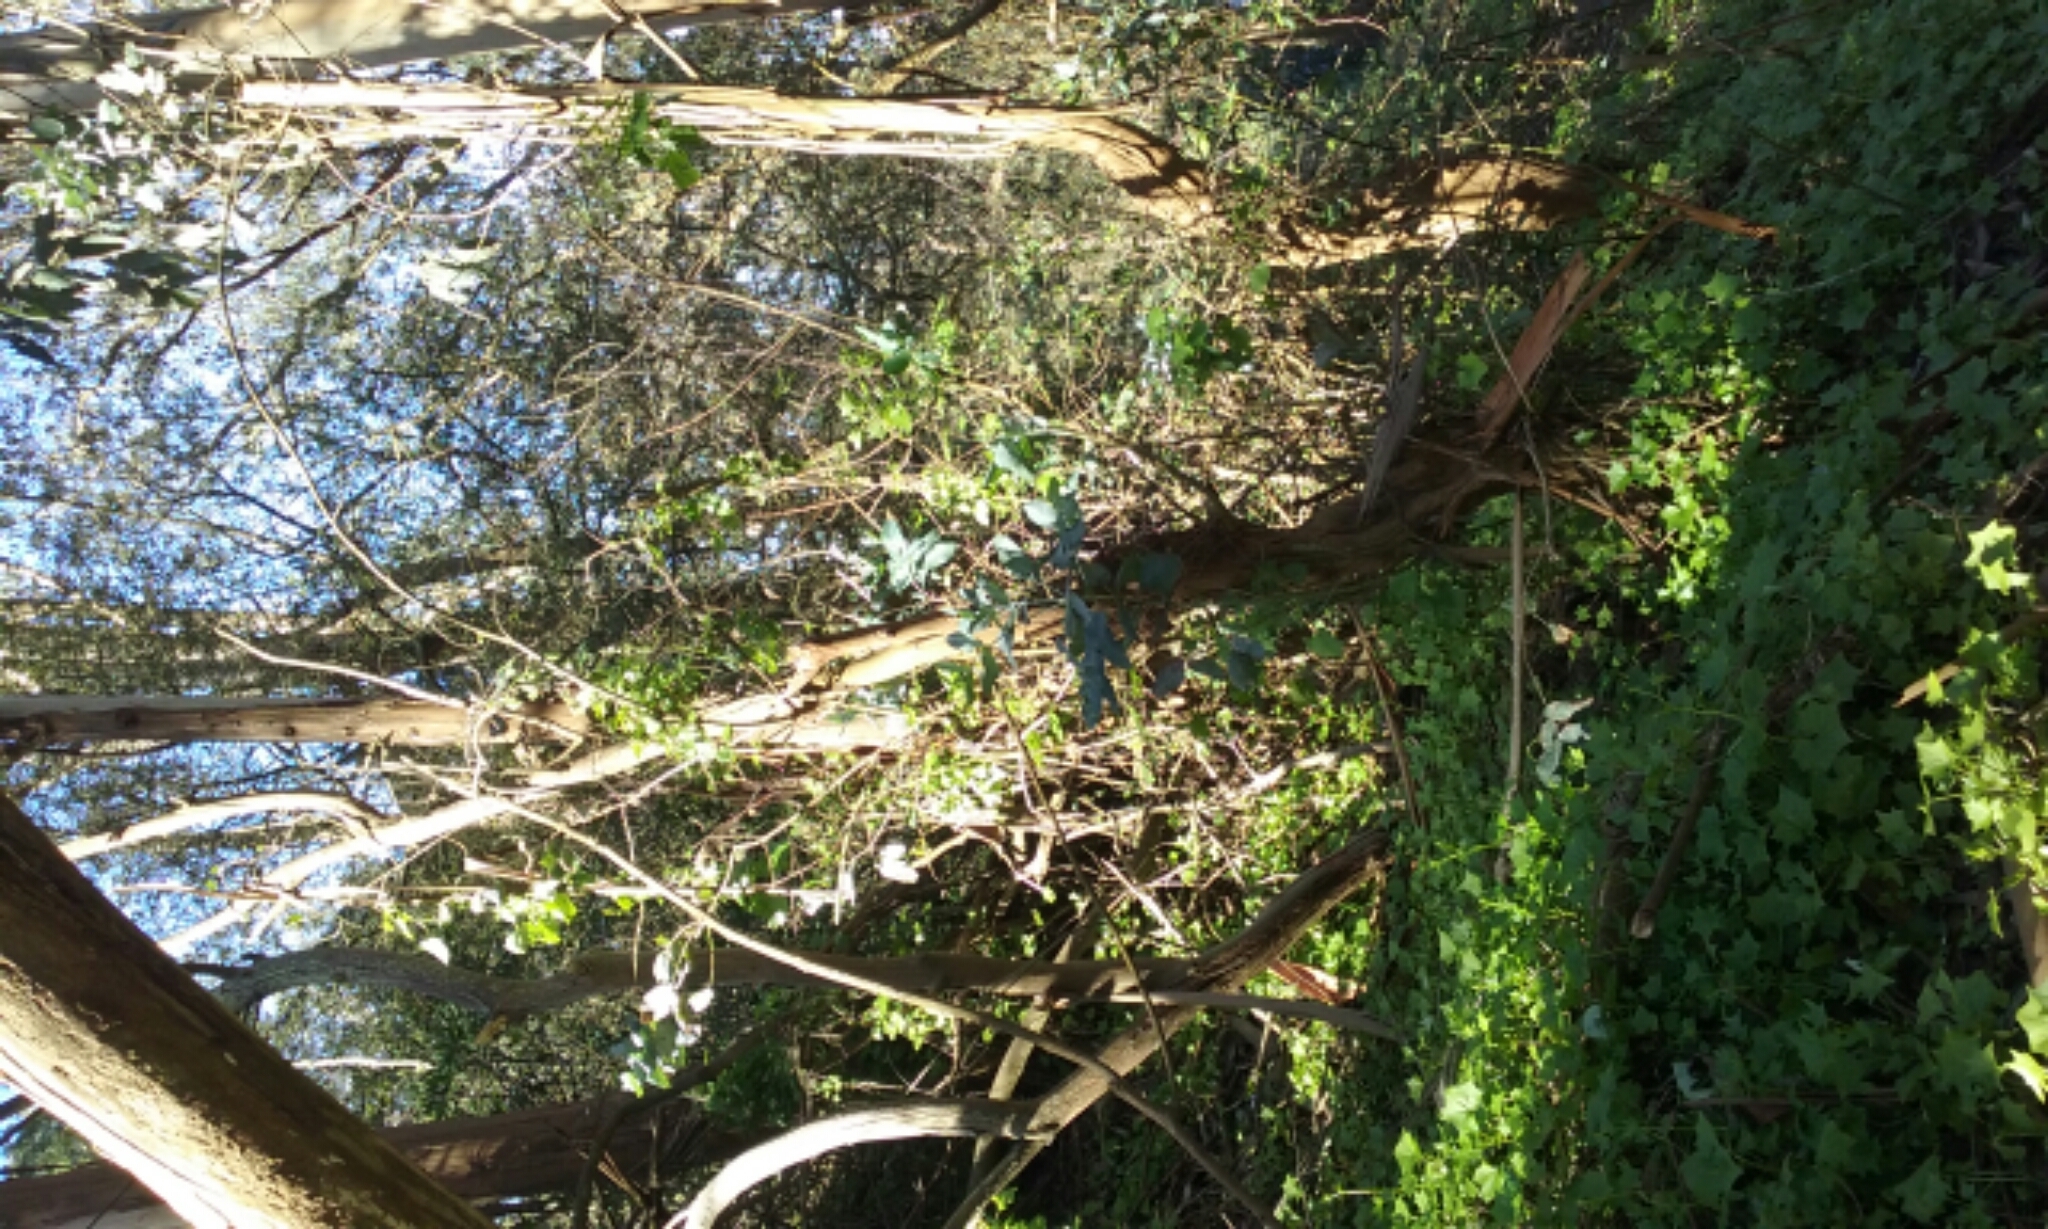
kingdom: Plantae
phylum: Tracheophyta
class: Magnoliopsida
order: Myrtales
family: Myrtaceae
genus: Eucalyptus
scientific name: Eucalyptus globulus
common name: Southern blue-gum
